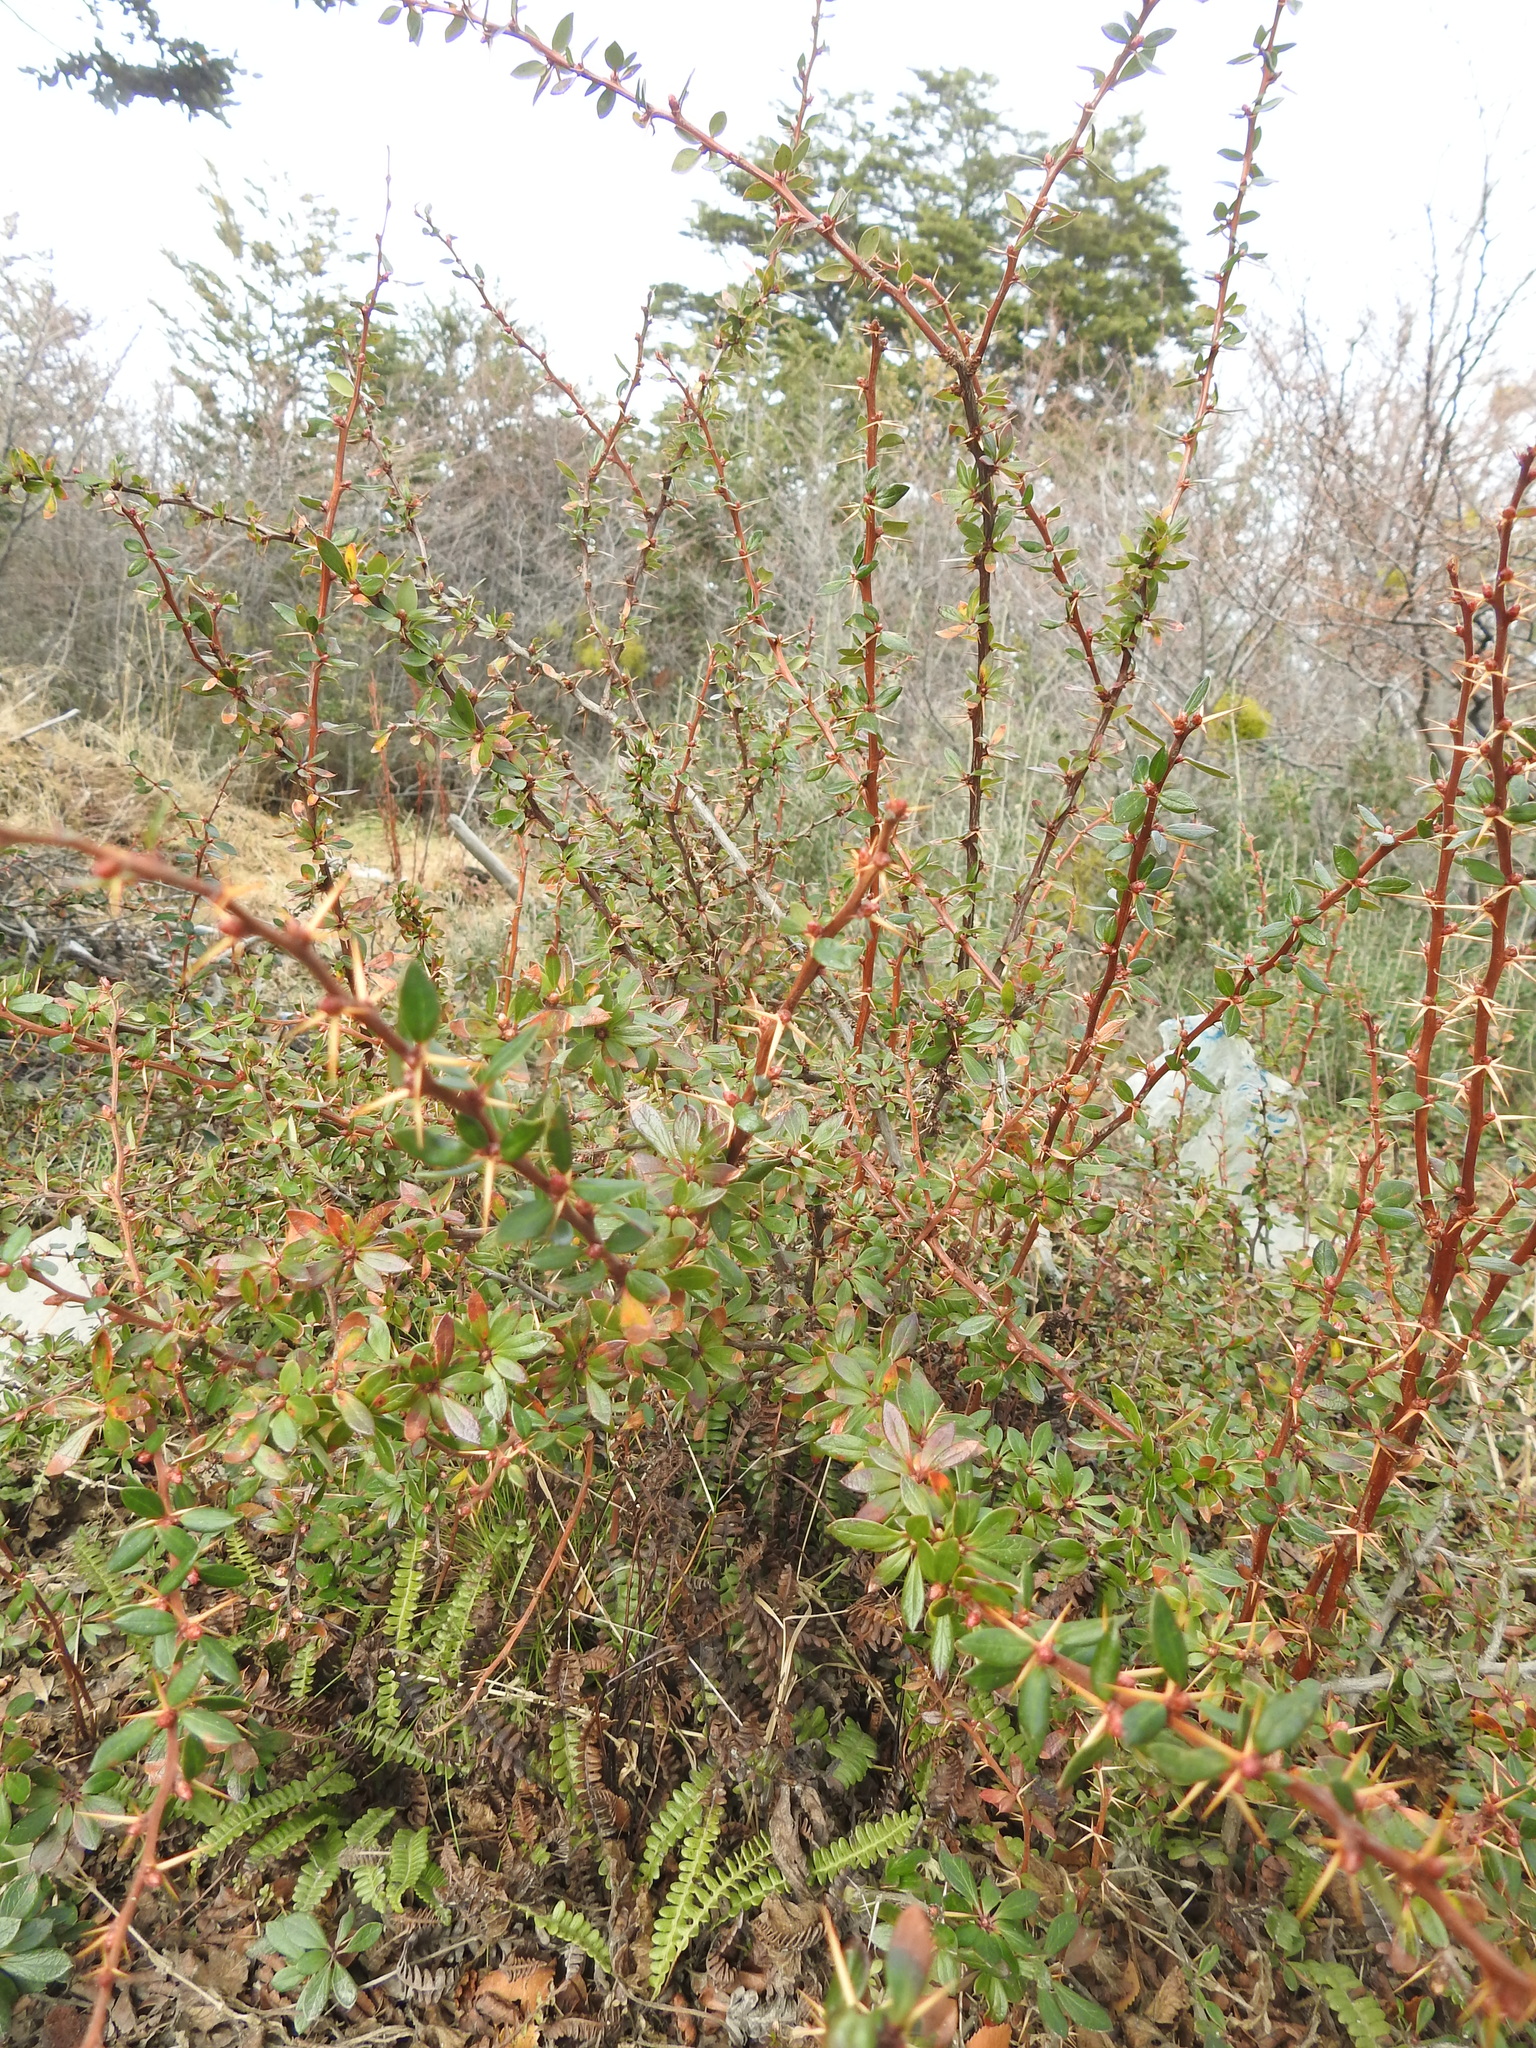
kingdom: Plantae
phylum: Tracheophyta
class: Magnoliopsida
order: Ranunculales
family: Berberidaceae
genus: Berberis
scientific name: Berberis microphylla
